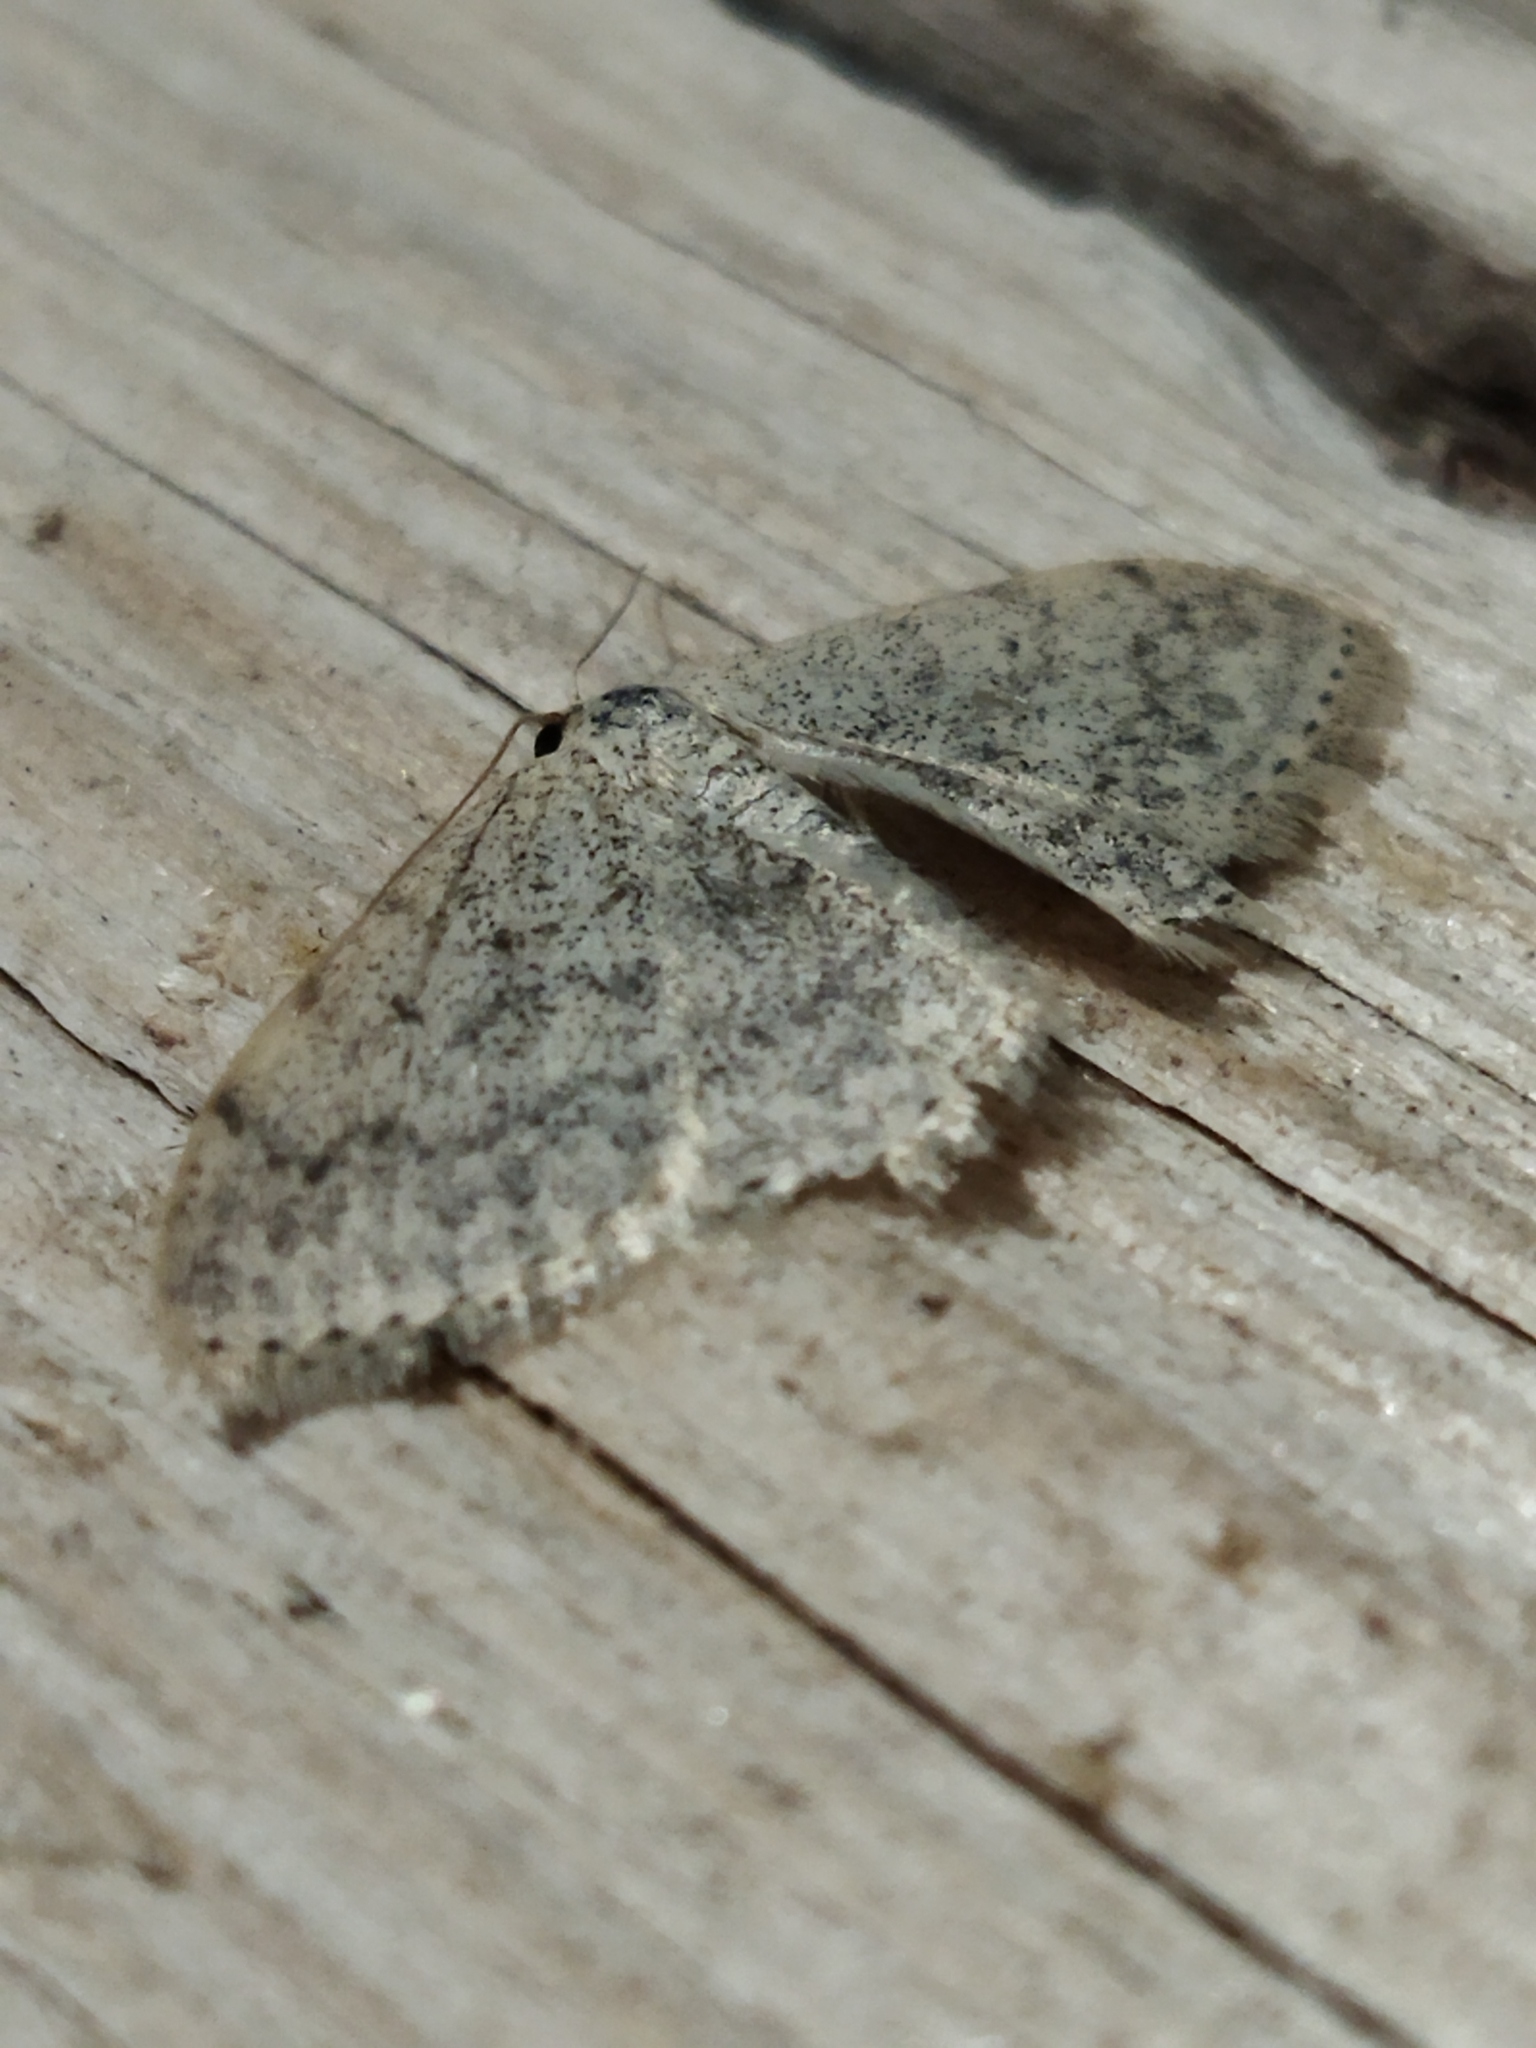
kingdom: Animalia
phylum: Arthropoda
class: Insecta
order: Lepidoptera
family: Geometridae
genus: Scopula
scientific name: Scopula marginepunctata
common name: Mullein wave
